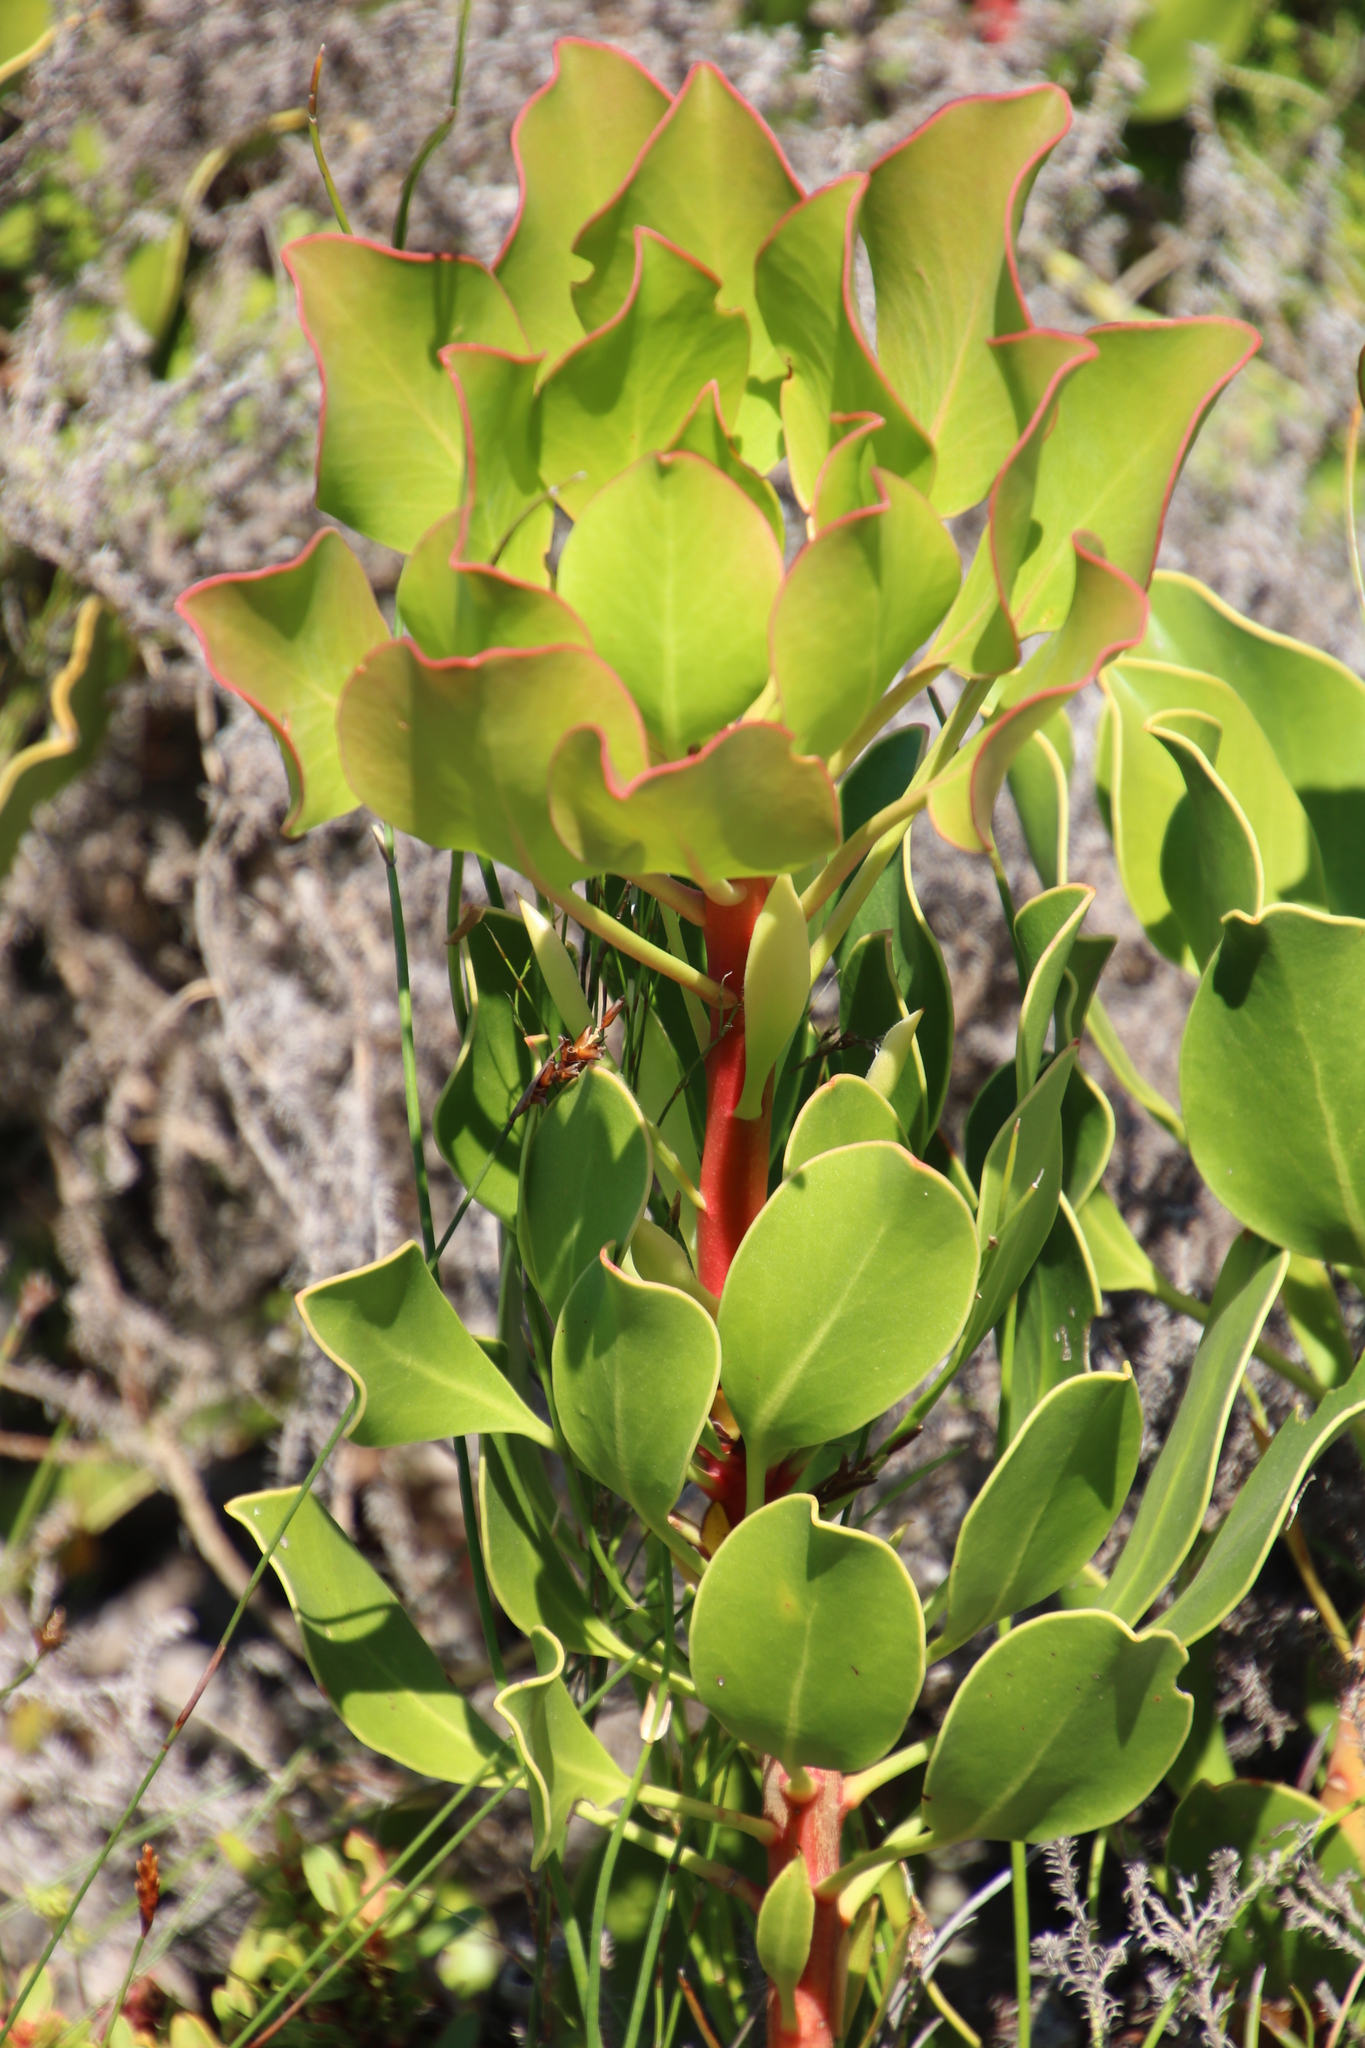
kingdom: Plantae
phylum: Tracheophyta
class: Magnoliopsida
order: Proteales
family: Proteaceae
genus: Protea
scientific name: Protea cynaroides
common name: King protea
